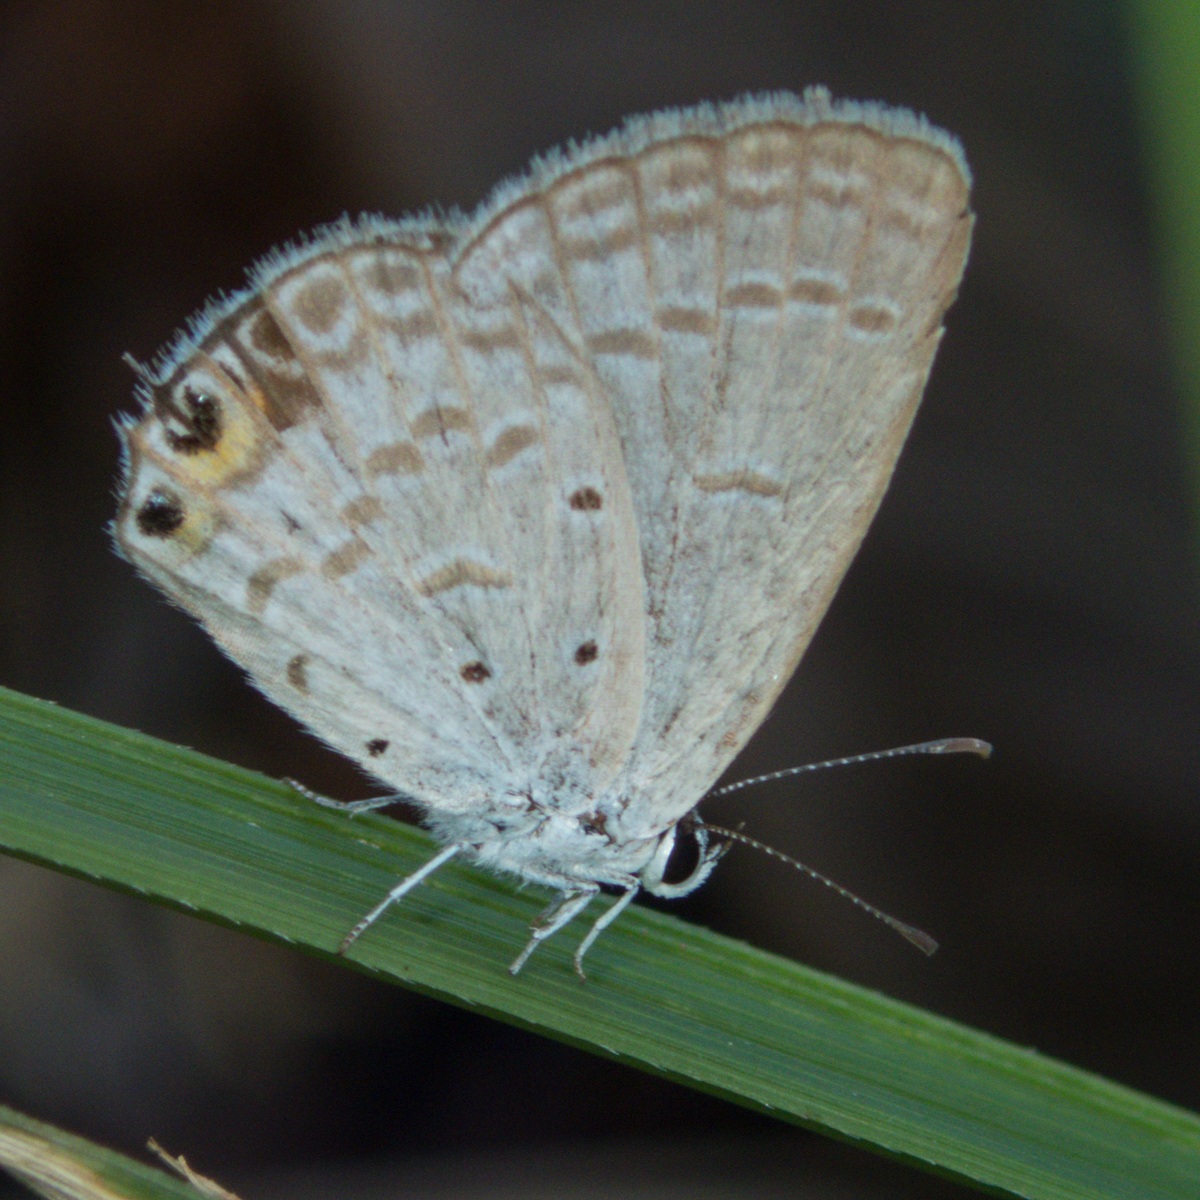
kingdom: Animalia
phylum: Arthropoda
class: Insecta
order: Lepidoptera
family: Lycaenidae
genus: Euchrysops
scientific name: Euchrysops cnejus
